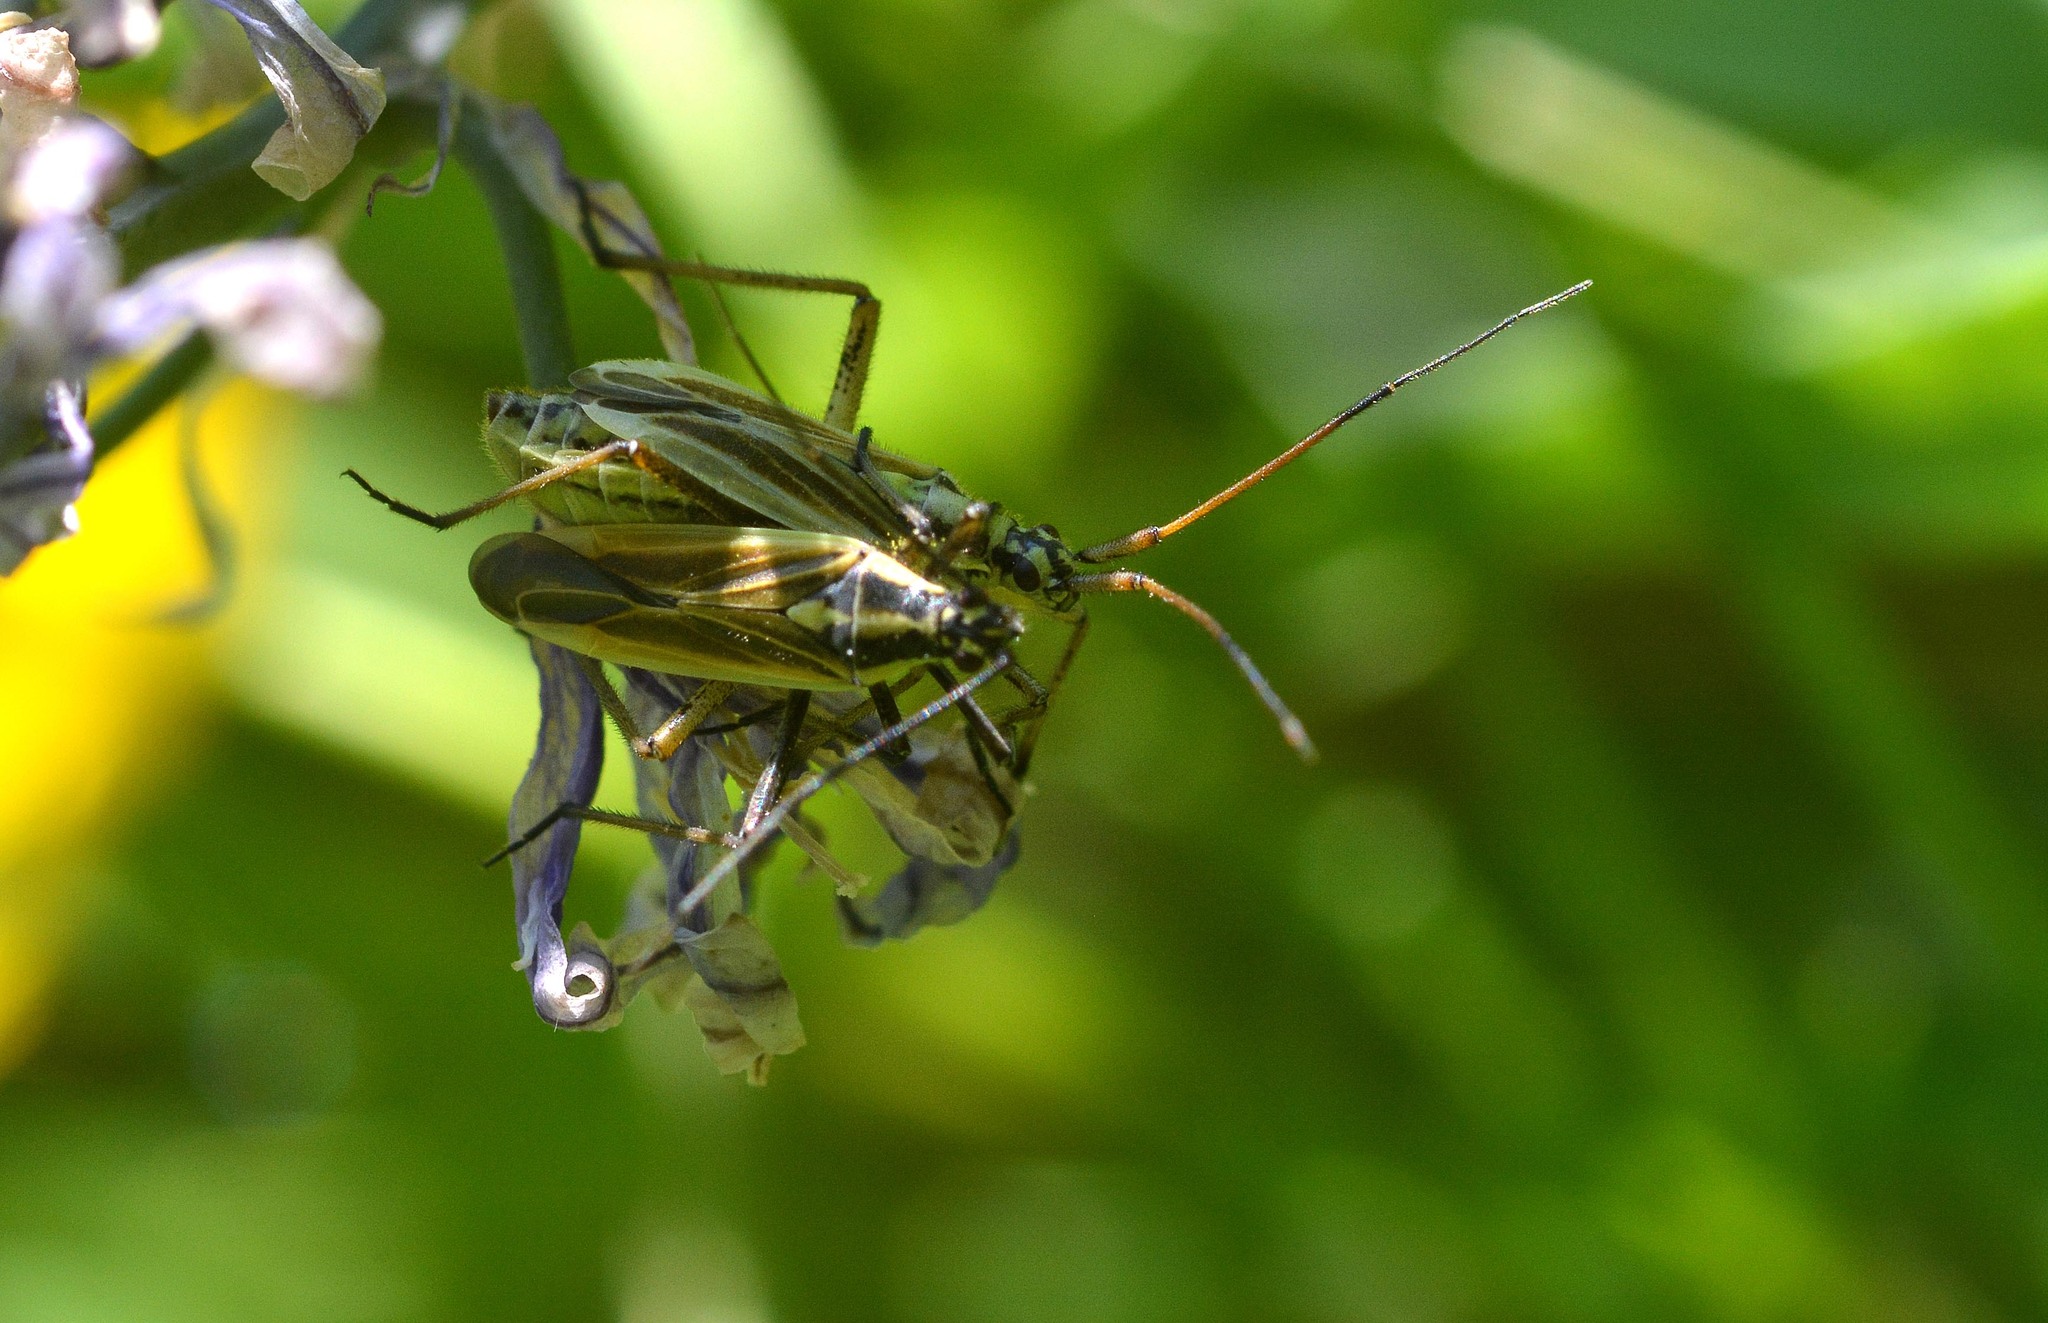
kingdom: Animalia
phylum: Arthropoda
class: Insecta
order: Hemiptera
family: Miridae
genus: Leptopterna
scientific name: Leptopterna dolabrata
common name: Meadow plant bug
